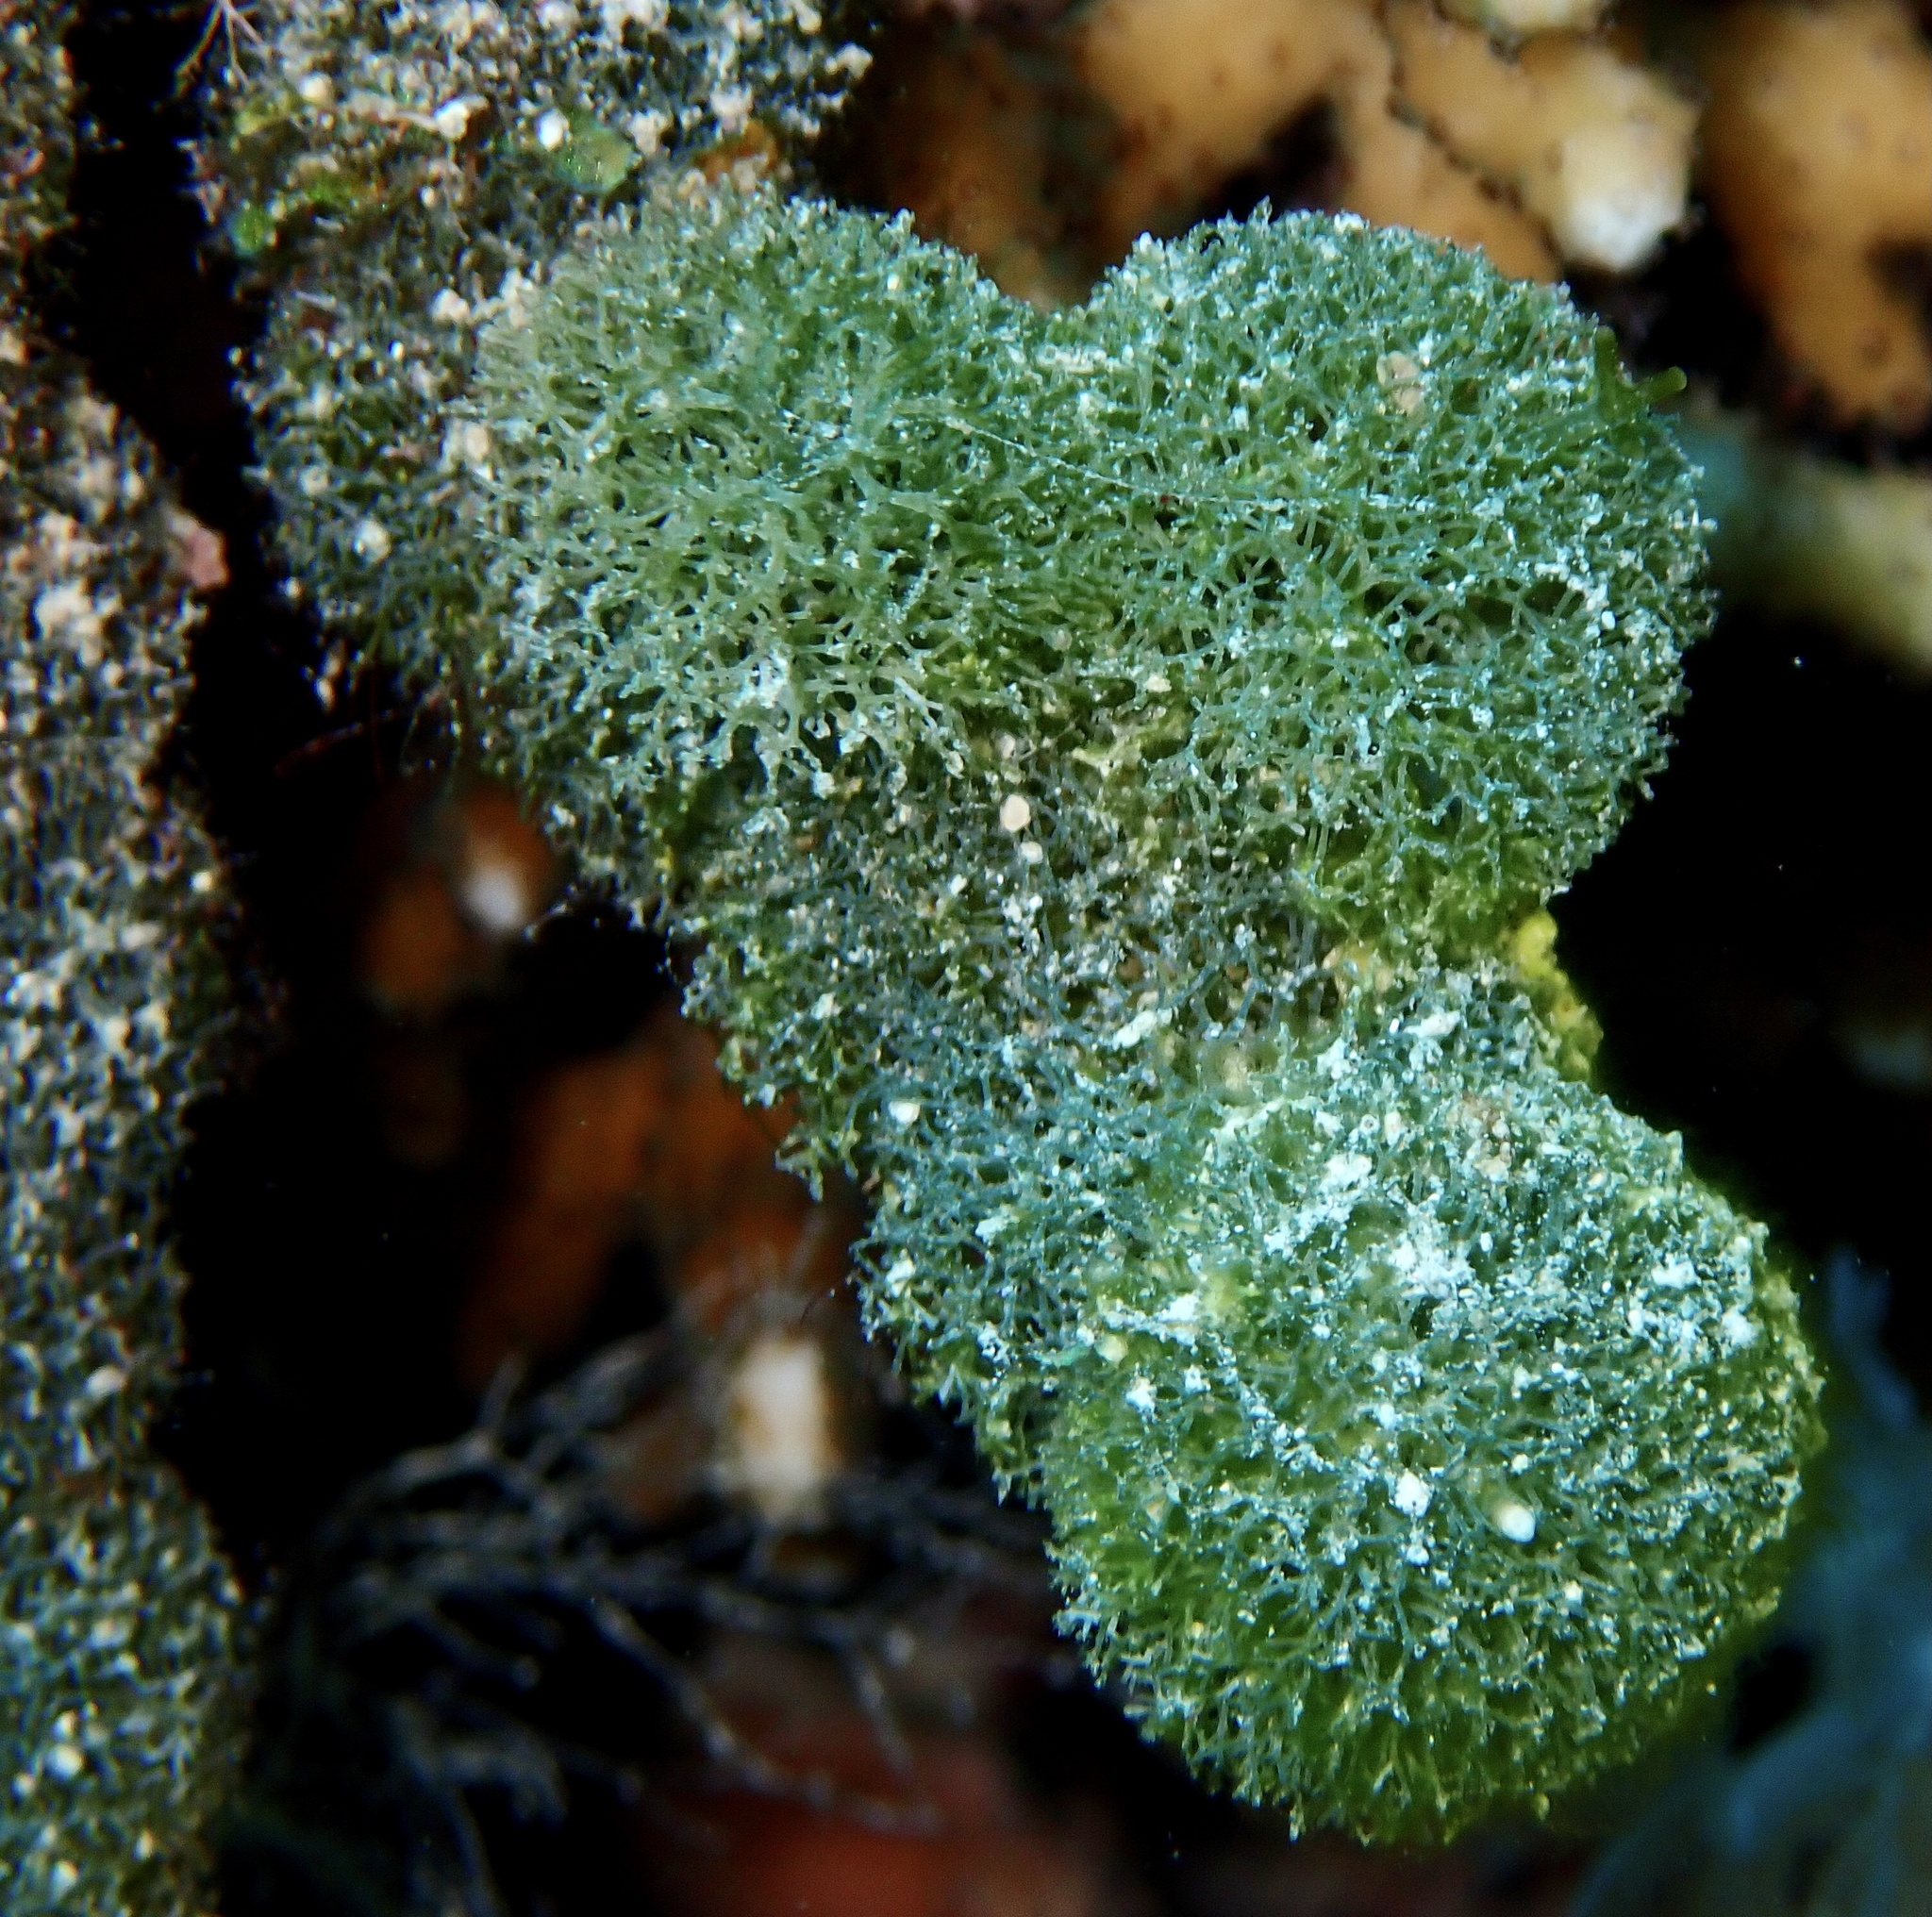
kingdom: Plantae
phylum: Chlorophyta
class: Ulvophyceae
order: Bryopsidales
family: Udoteaceae
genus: Tydemania
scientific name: Tydemania expeditionis
